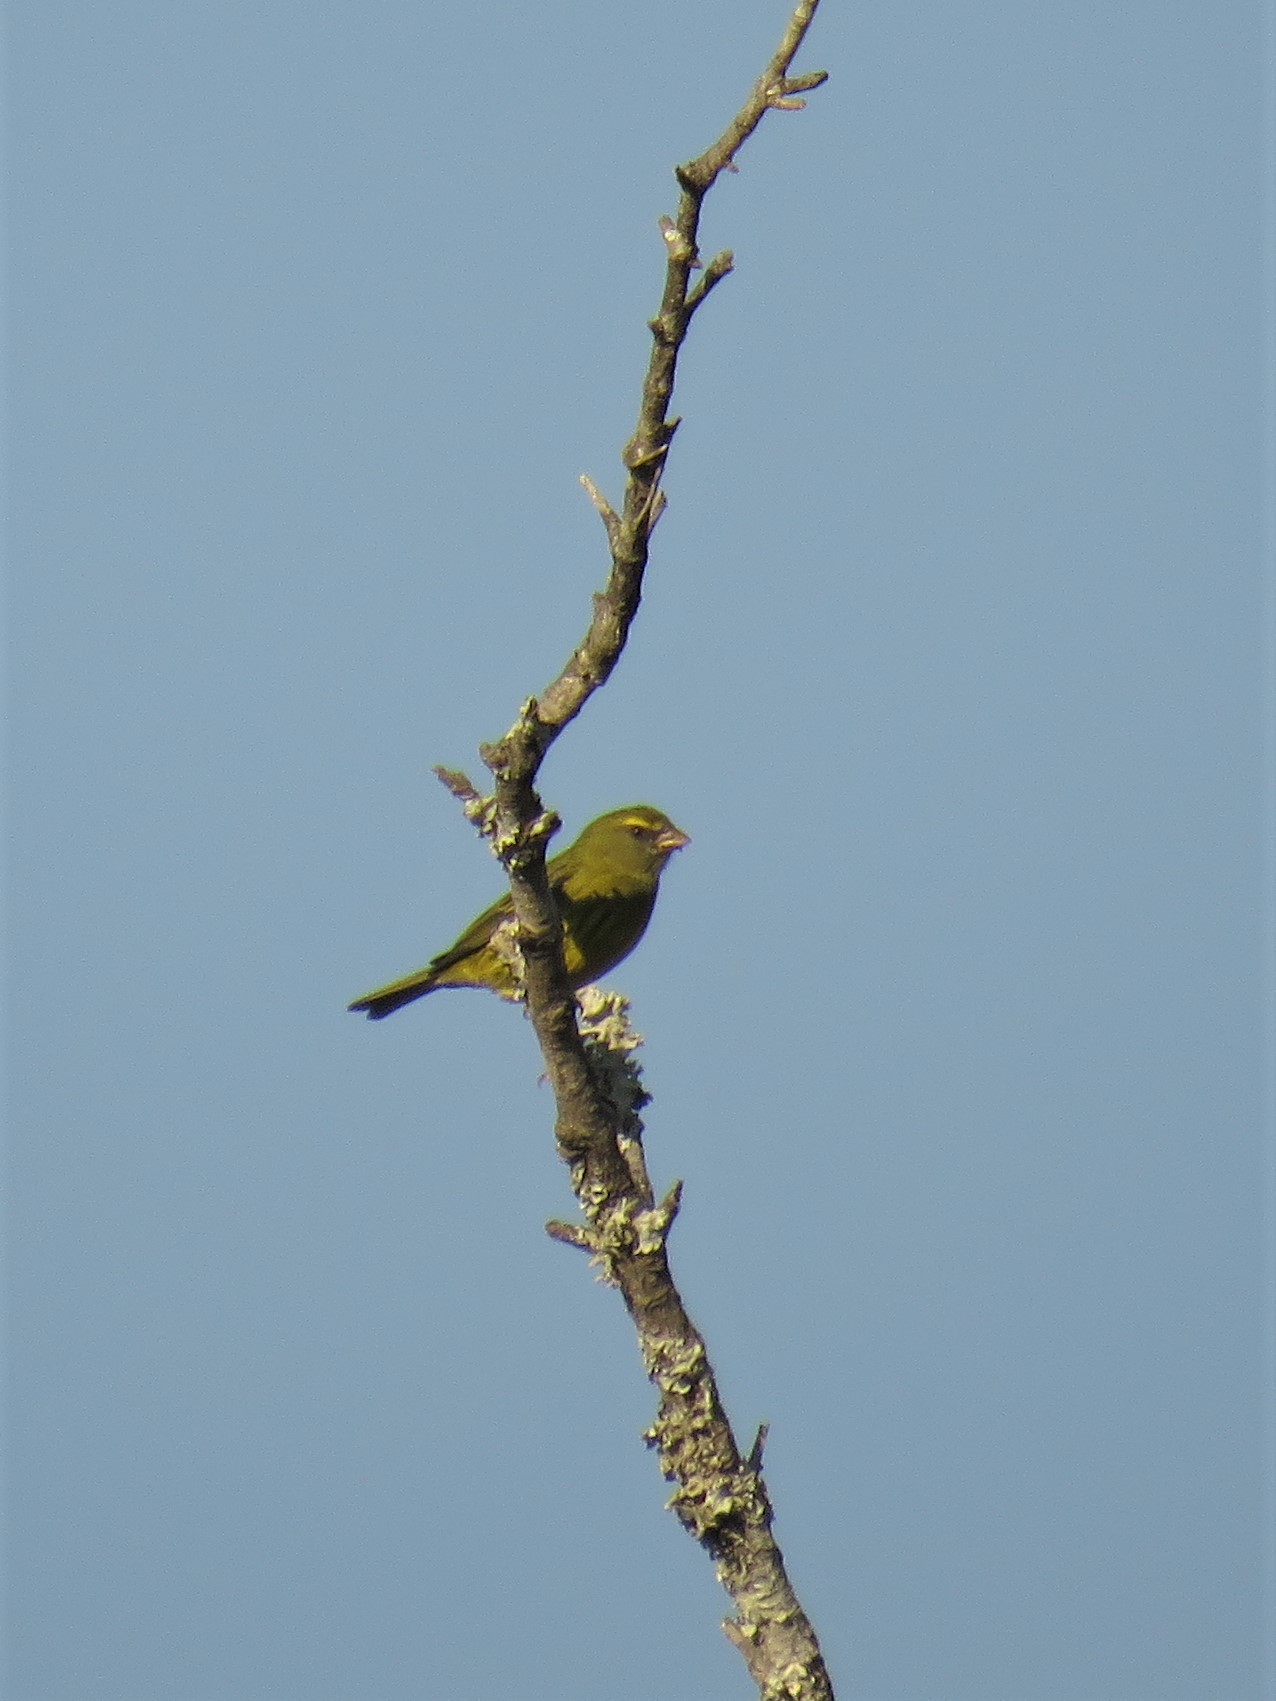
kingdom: Animalia
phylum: Chordata
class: Aves
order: Passeriformes
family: Fringillidae
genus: Crithagra
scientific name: Crithagra scotops
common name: Forest canary
